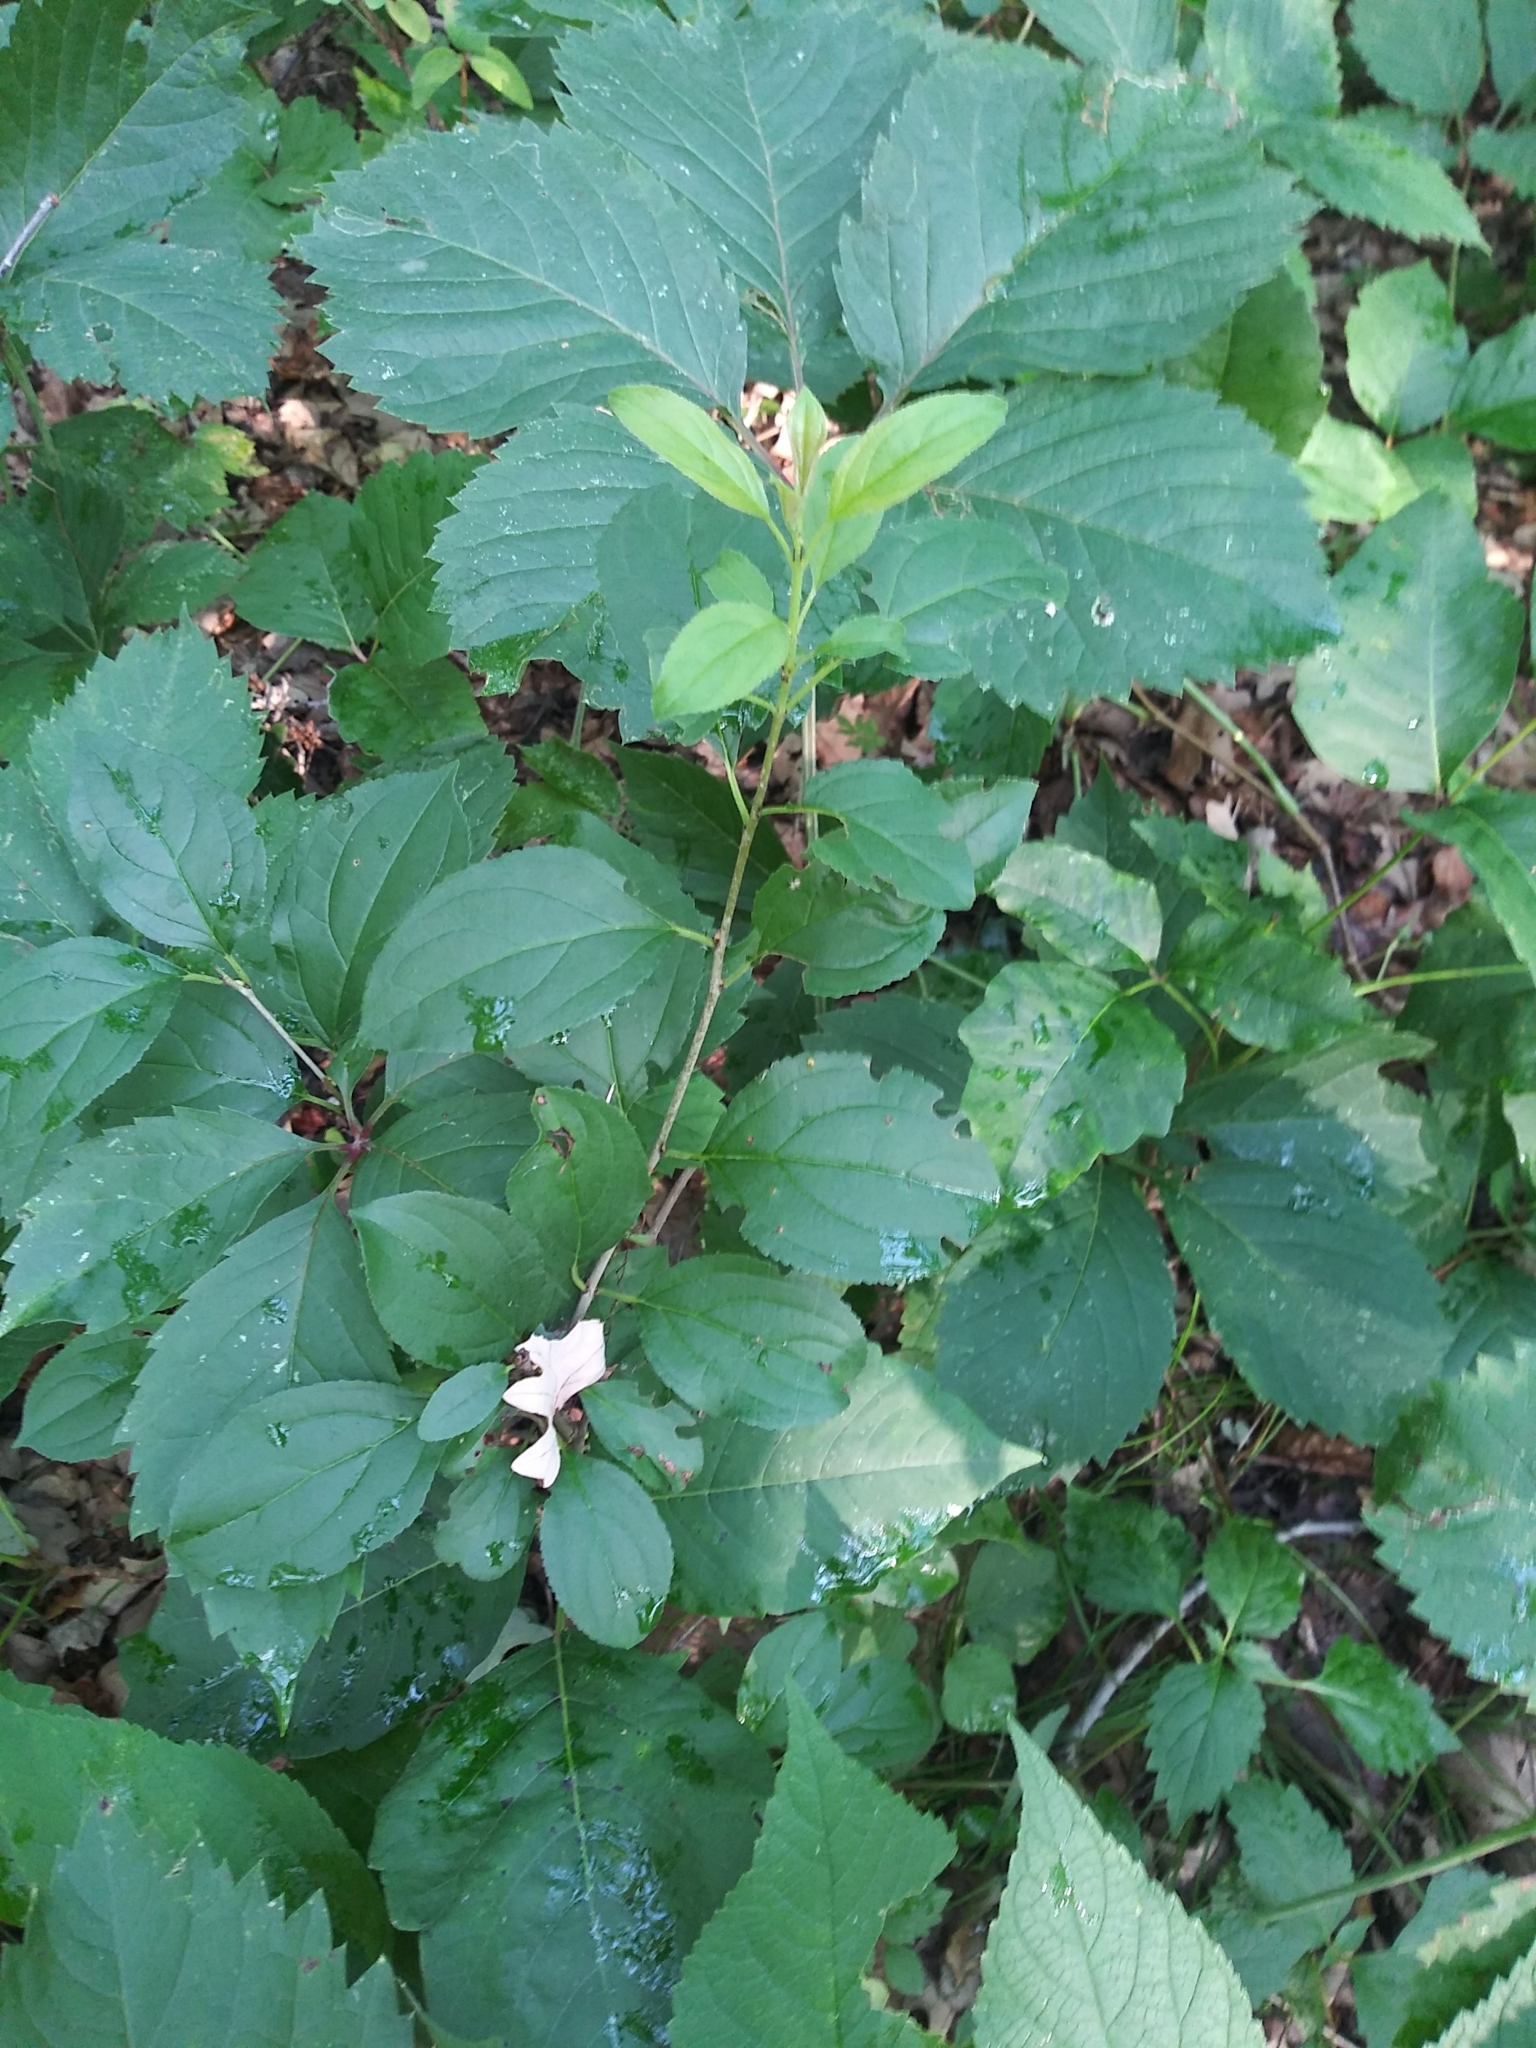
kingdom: Plantae
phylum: Tracheophyta
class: Magnoliopsida
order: Rosales
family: Rhamnaceae
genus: Rhamnus
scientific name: Rhamnus cathartica
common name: Common buckthorn
